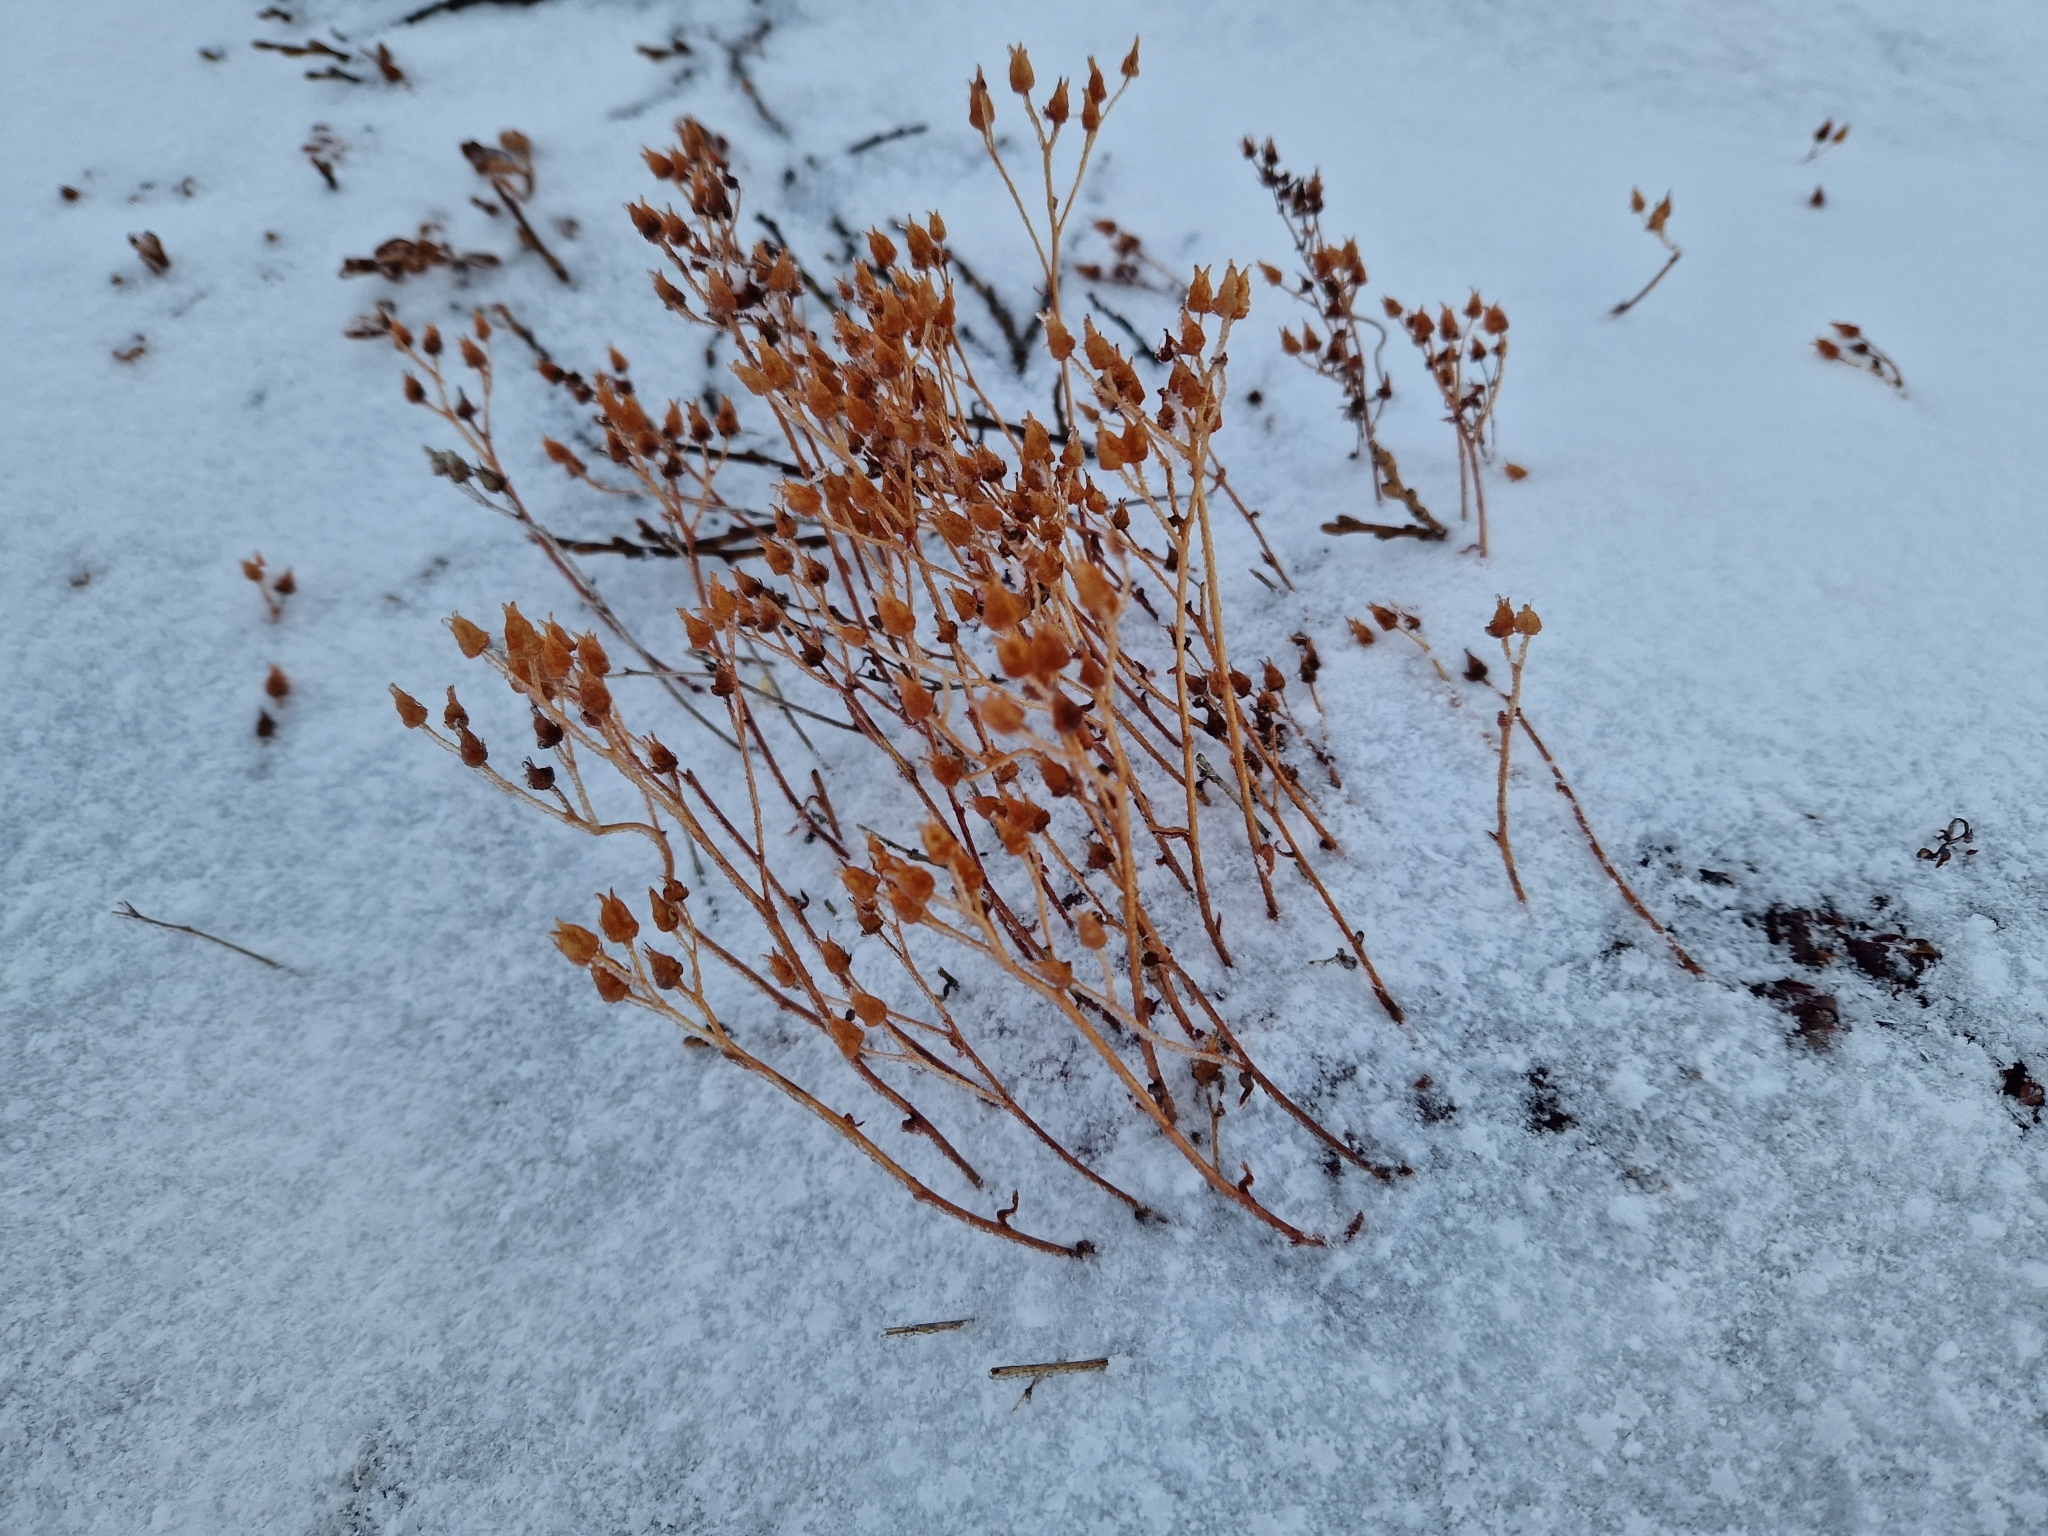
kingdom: Plantae
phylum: Tracheophyta
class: Magnoliopsida
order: Saxifragales
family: Saxifragaceae
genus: Saxifraga
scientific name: Saxifraga tricuspidata
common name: Prickly saxifrage
